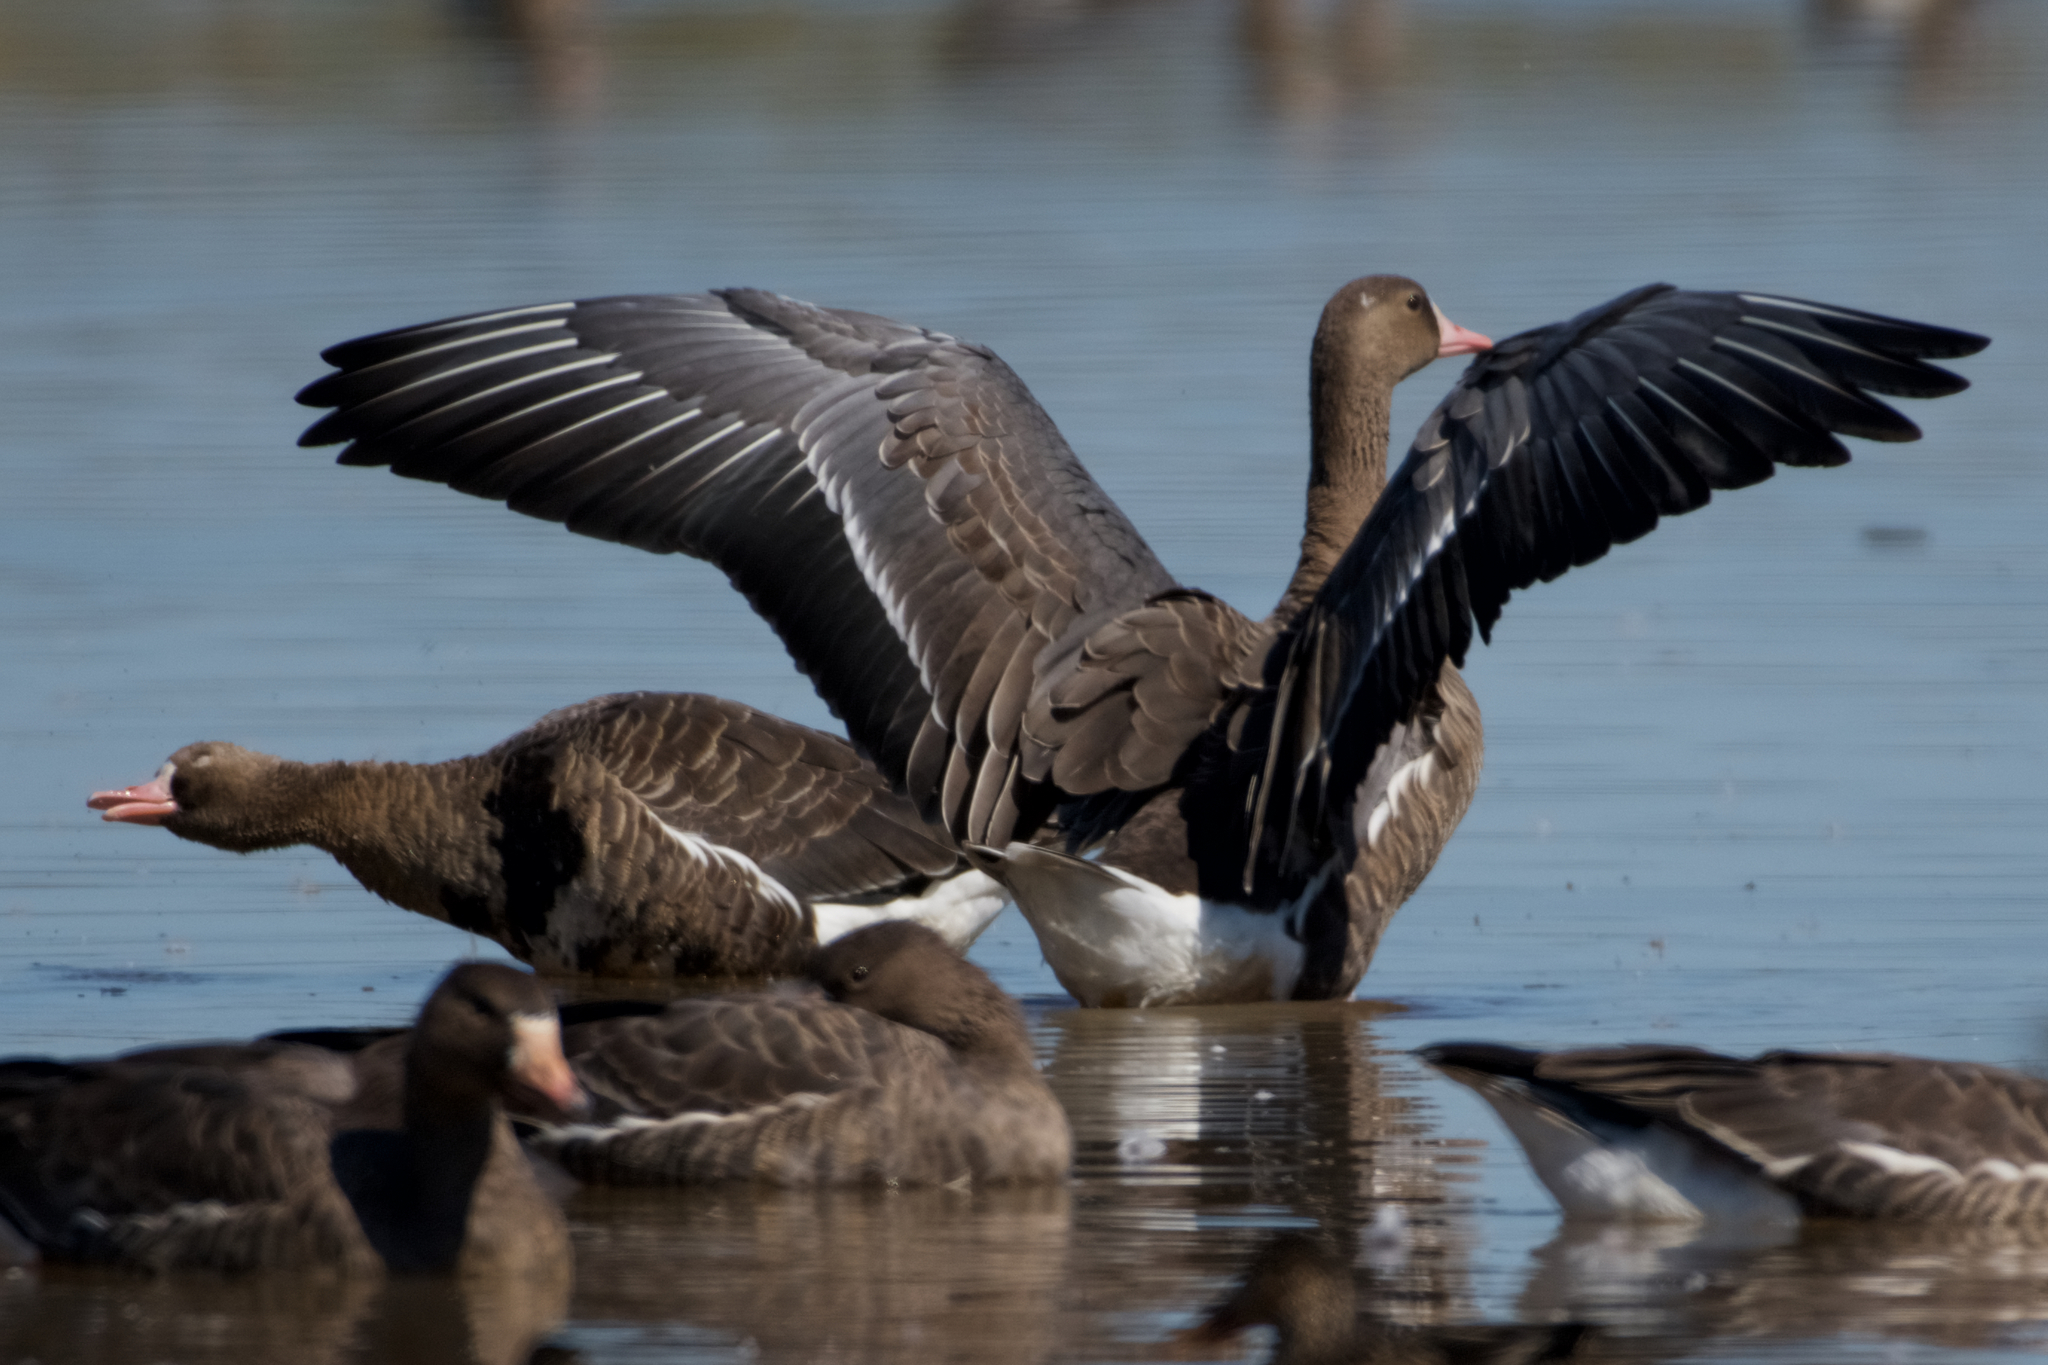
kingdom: Animalia
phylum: Chordata
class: Aves
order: Anseriformes
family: Anatidae
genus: Anser
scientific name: Anser albifrons
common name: Greater white-fronted goose
